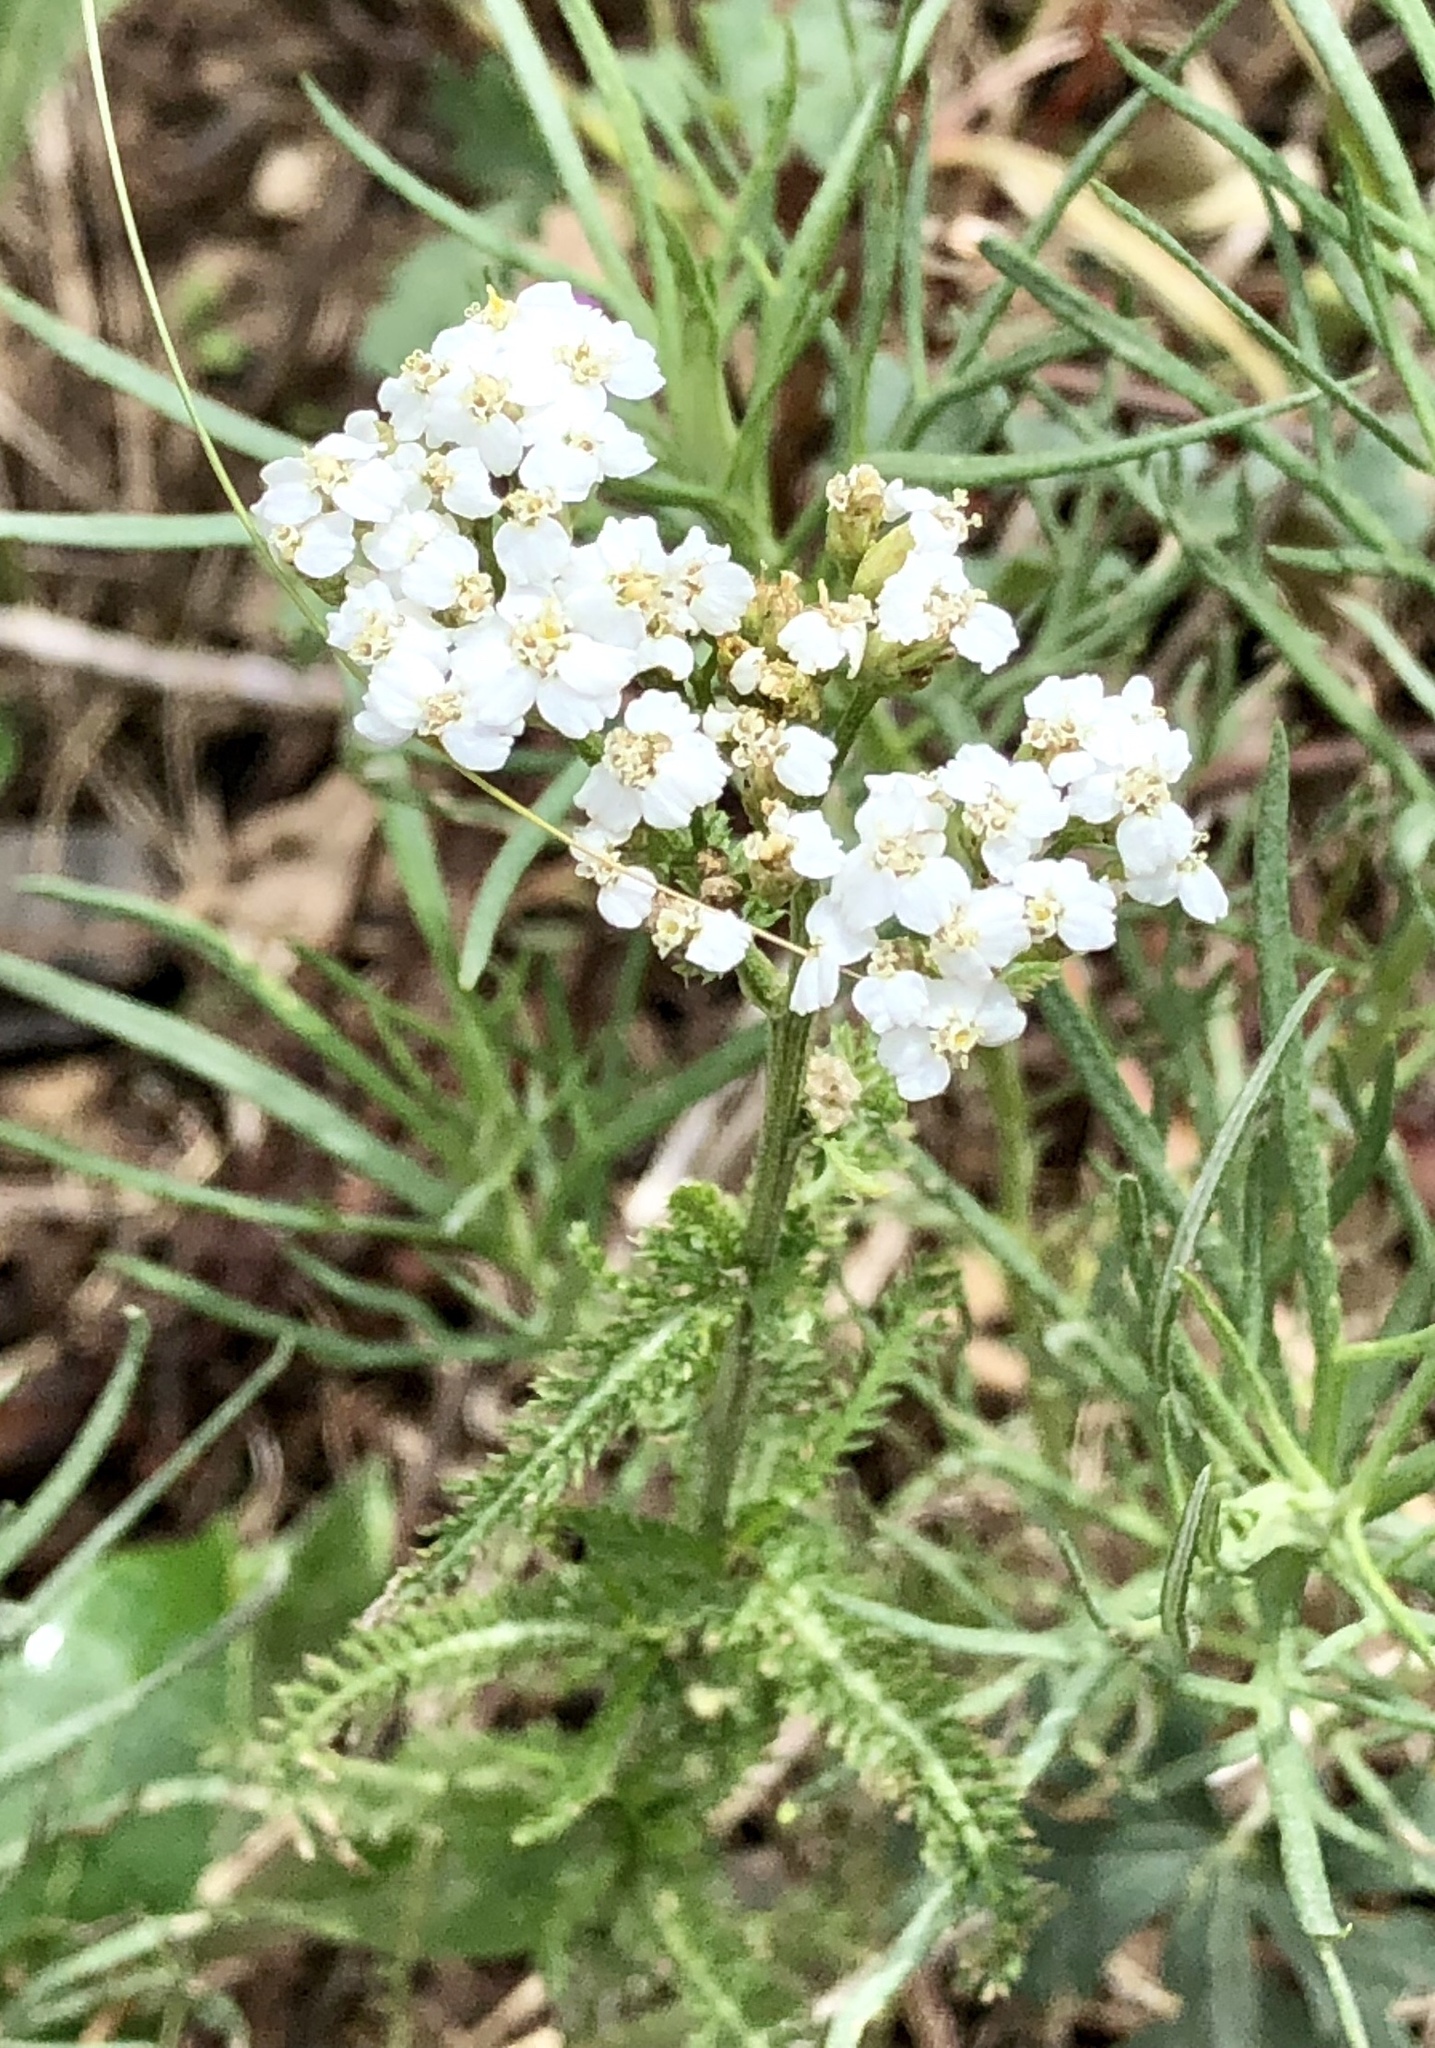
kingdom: Plantae
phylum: Tracheophyta
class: Magnoliopsida
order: Asterales
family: Asteraceae
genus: Achillea
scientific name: Achillea millefolium
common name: Yarrow
